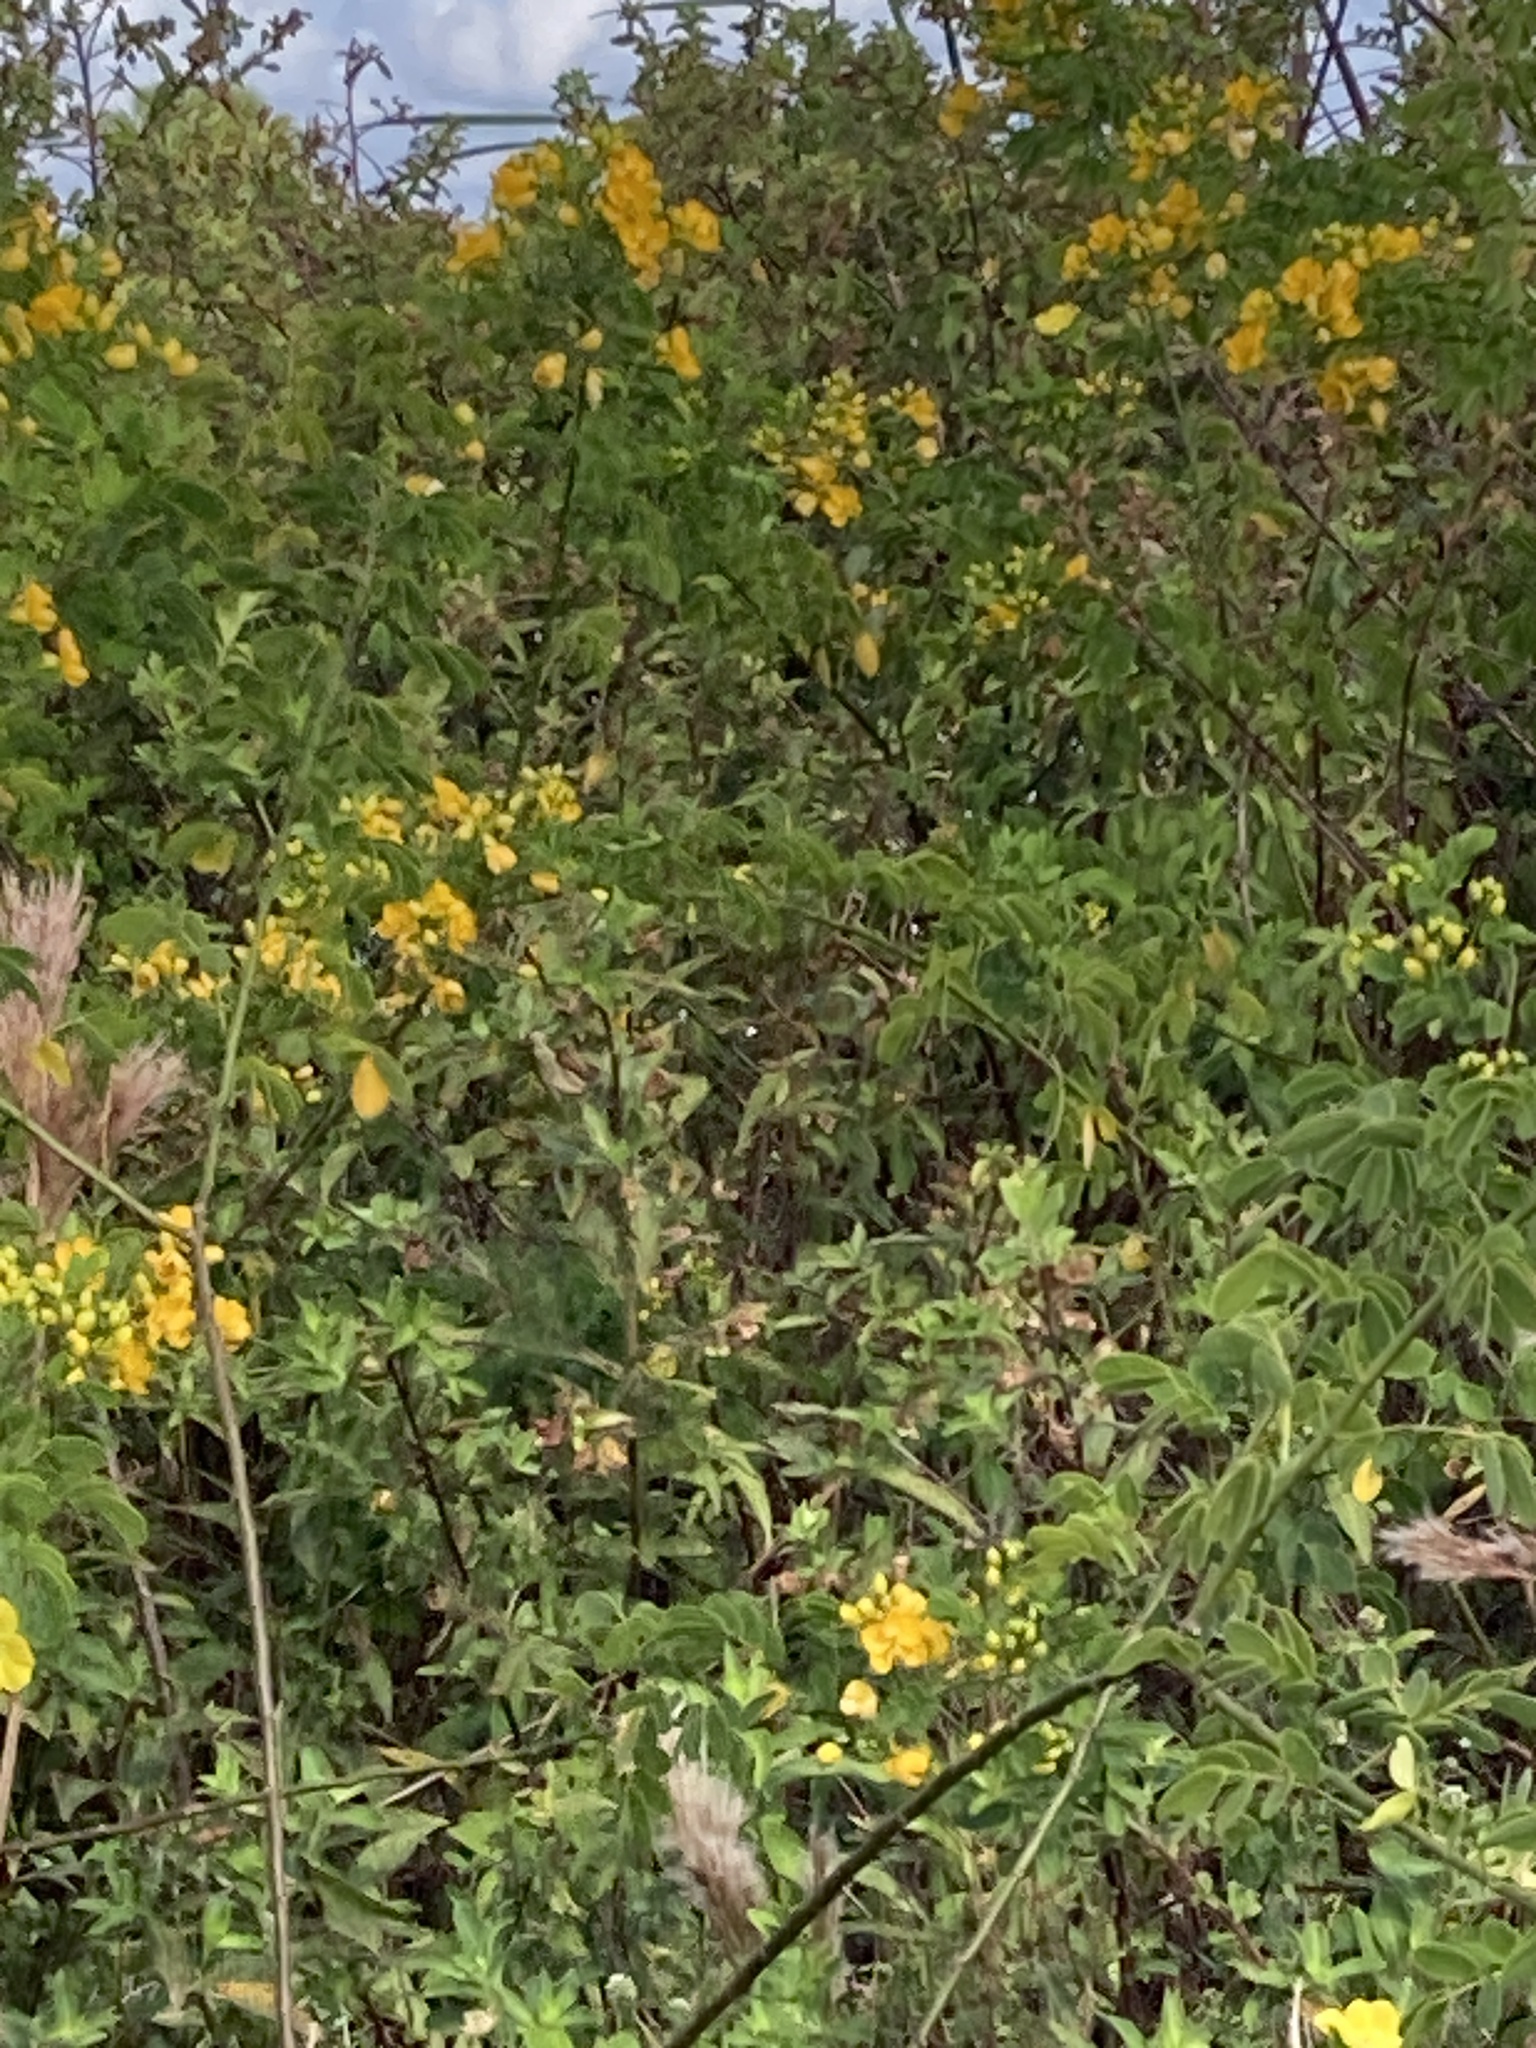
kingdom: Plantae
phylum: Tracheophyta
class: Magnoliopsida
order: Fabales
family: Fabaceae
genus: Senna
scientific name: Senna pendula
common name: Easter cassia
